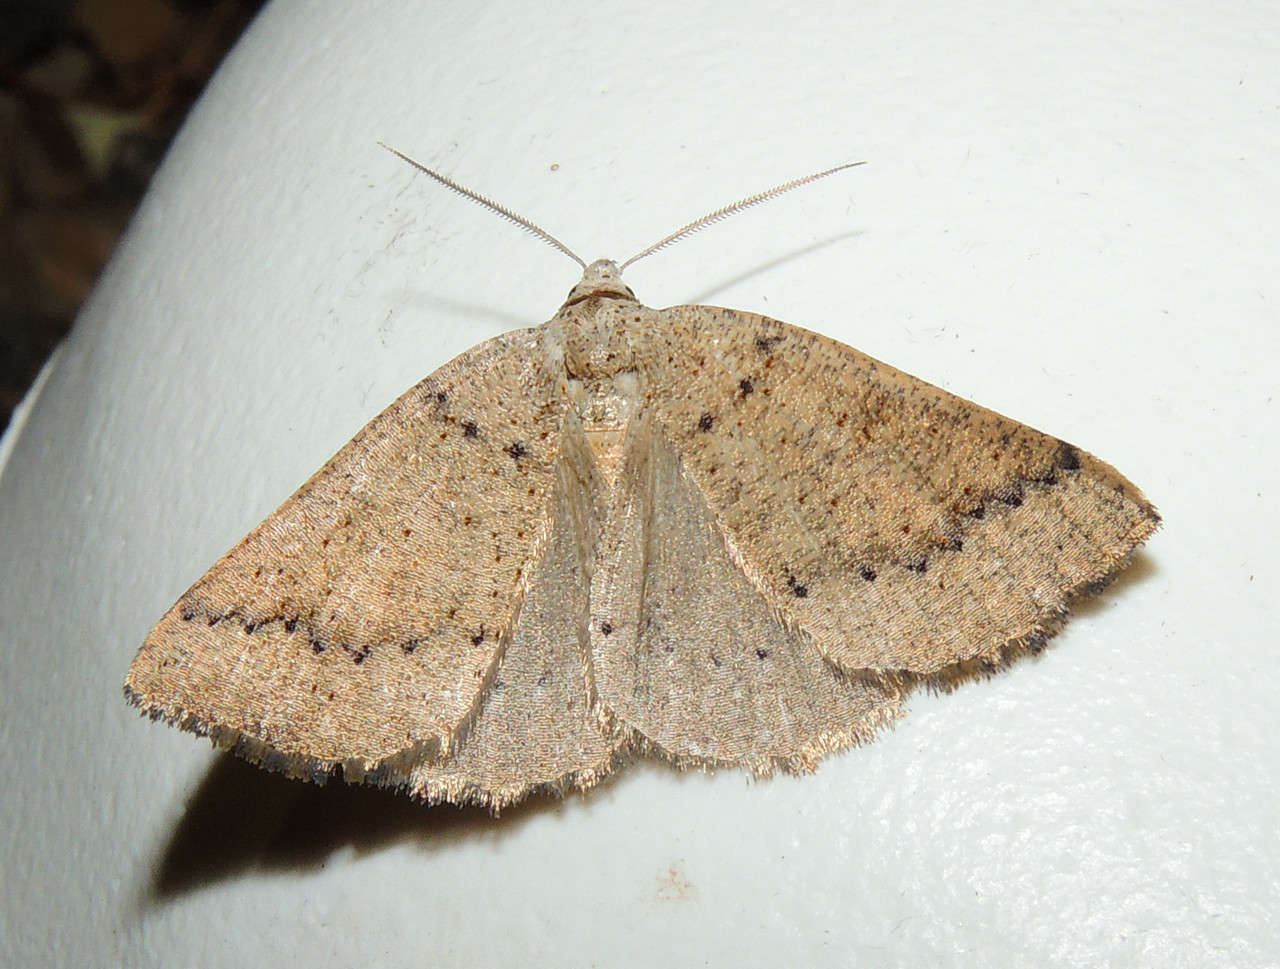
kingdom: Animalia
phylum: Arthropoda
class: Insecta
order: Lepidoptera
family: Geometridae
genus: Dolabrossa
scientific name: Dolabrossa amblopa
